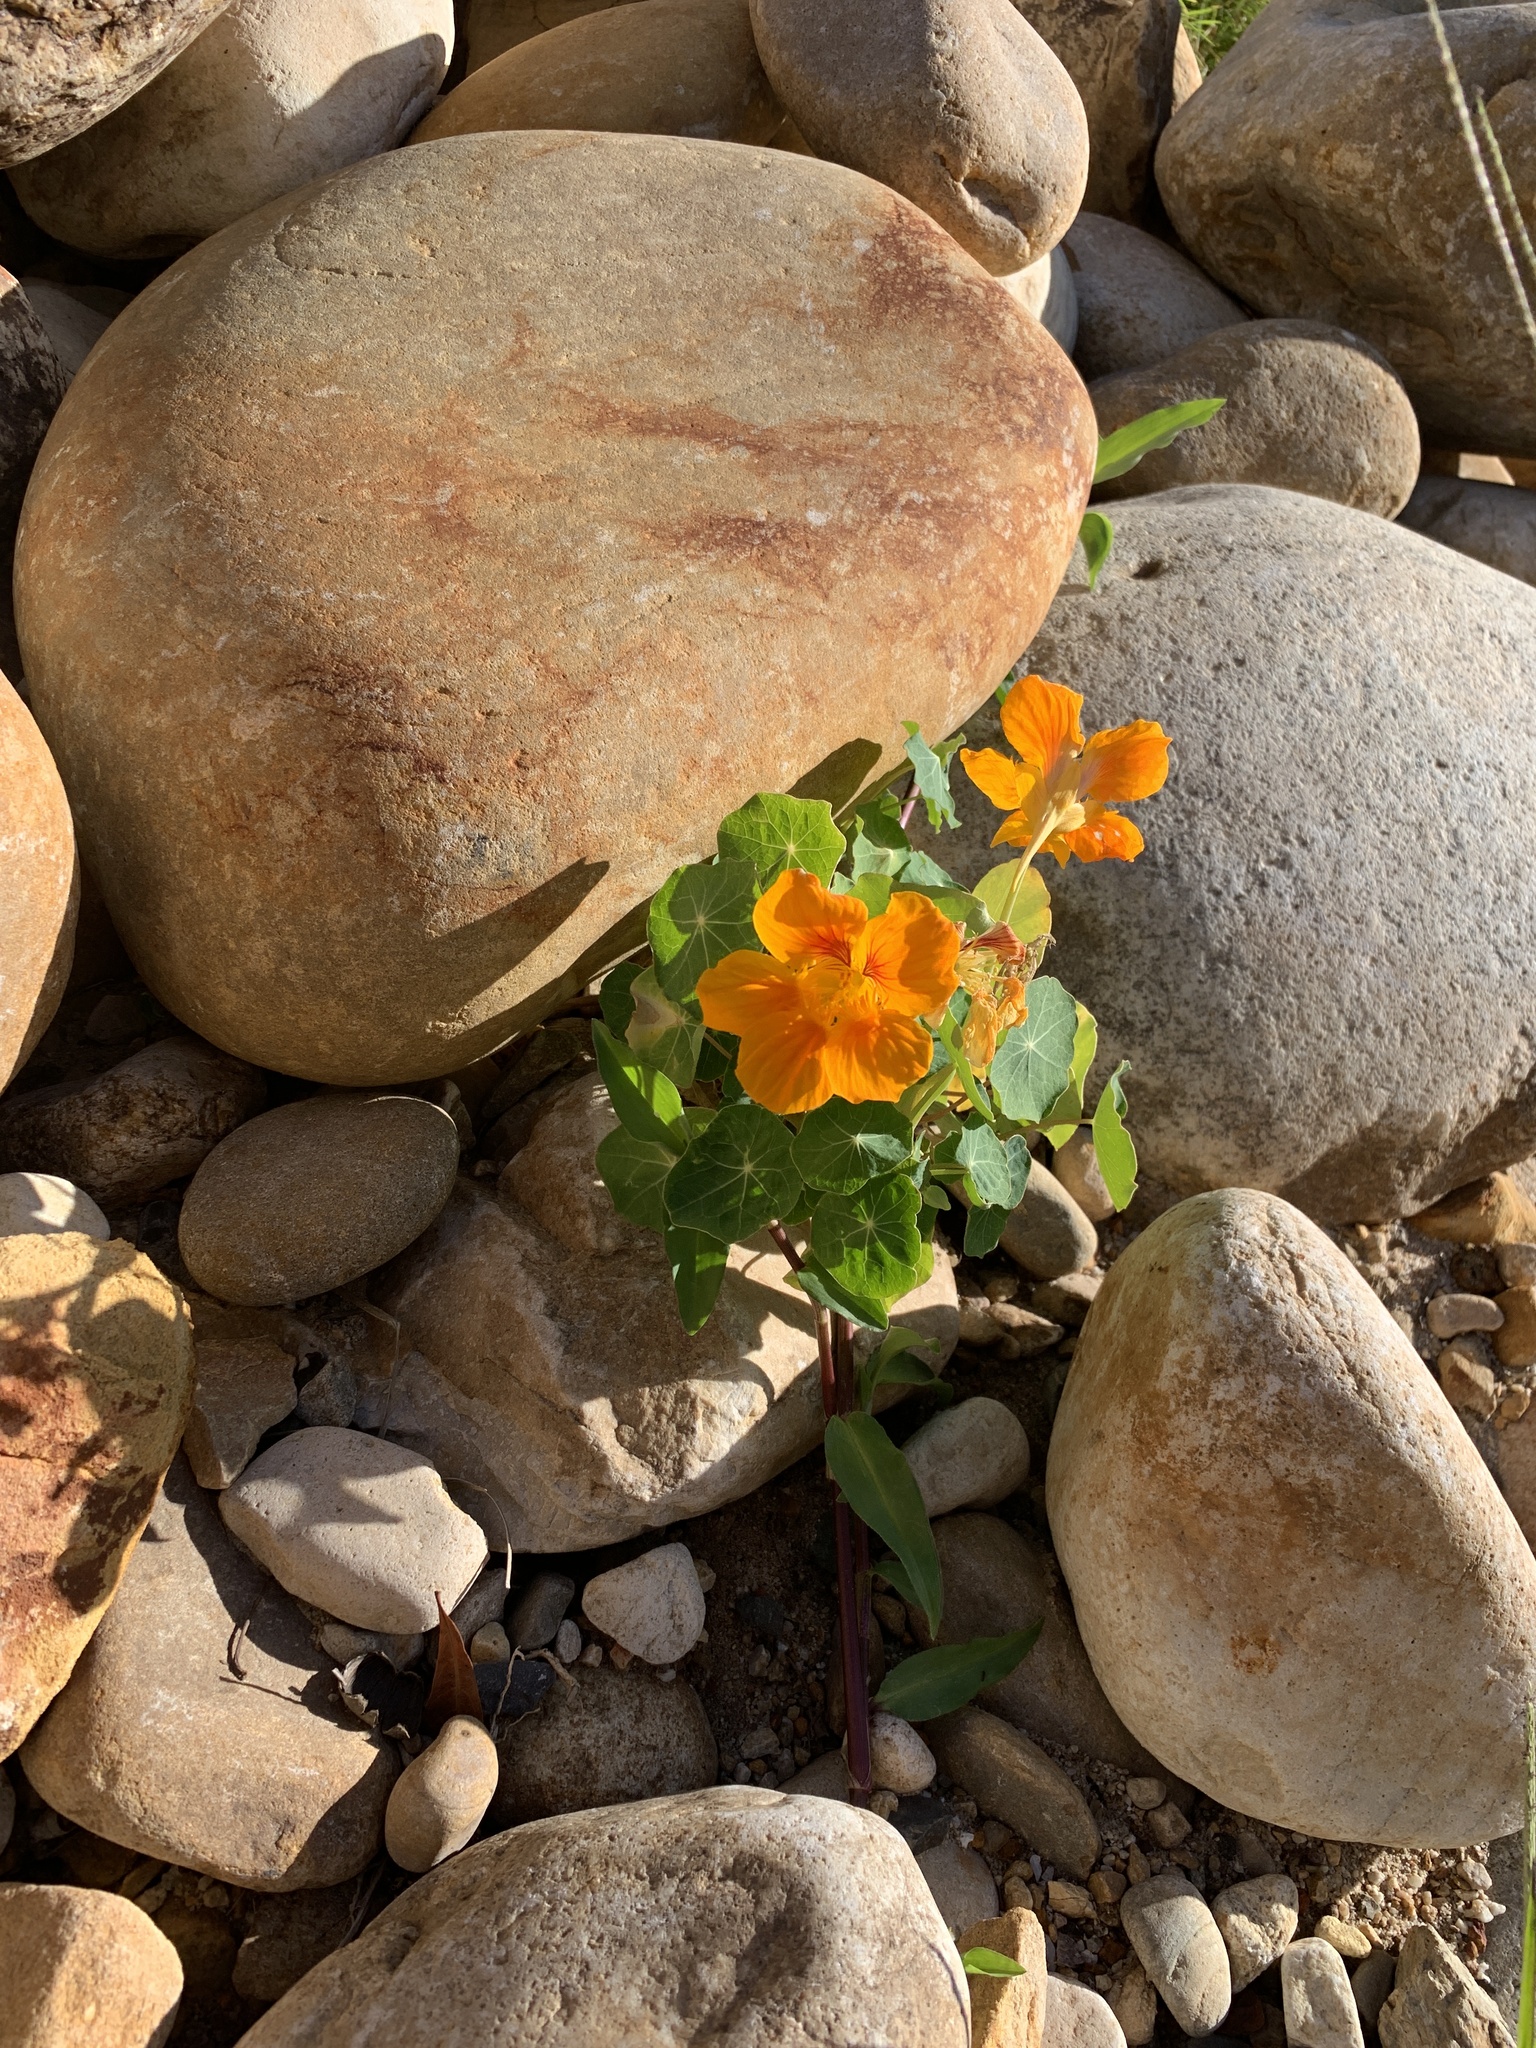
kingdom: Plantae
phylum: Tracheophyta
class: Magnoliopsida
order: Brassicales
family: Tropaeolaceae
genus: Tropaeolum
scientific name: Tropaeolum majus
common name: Nasturtium
